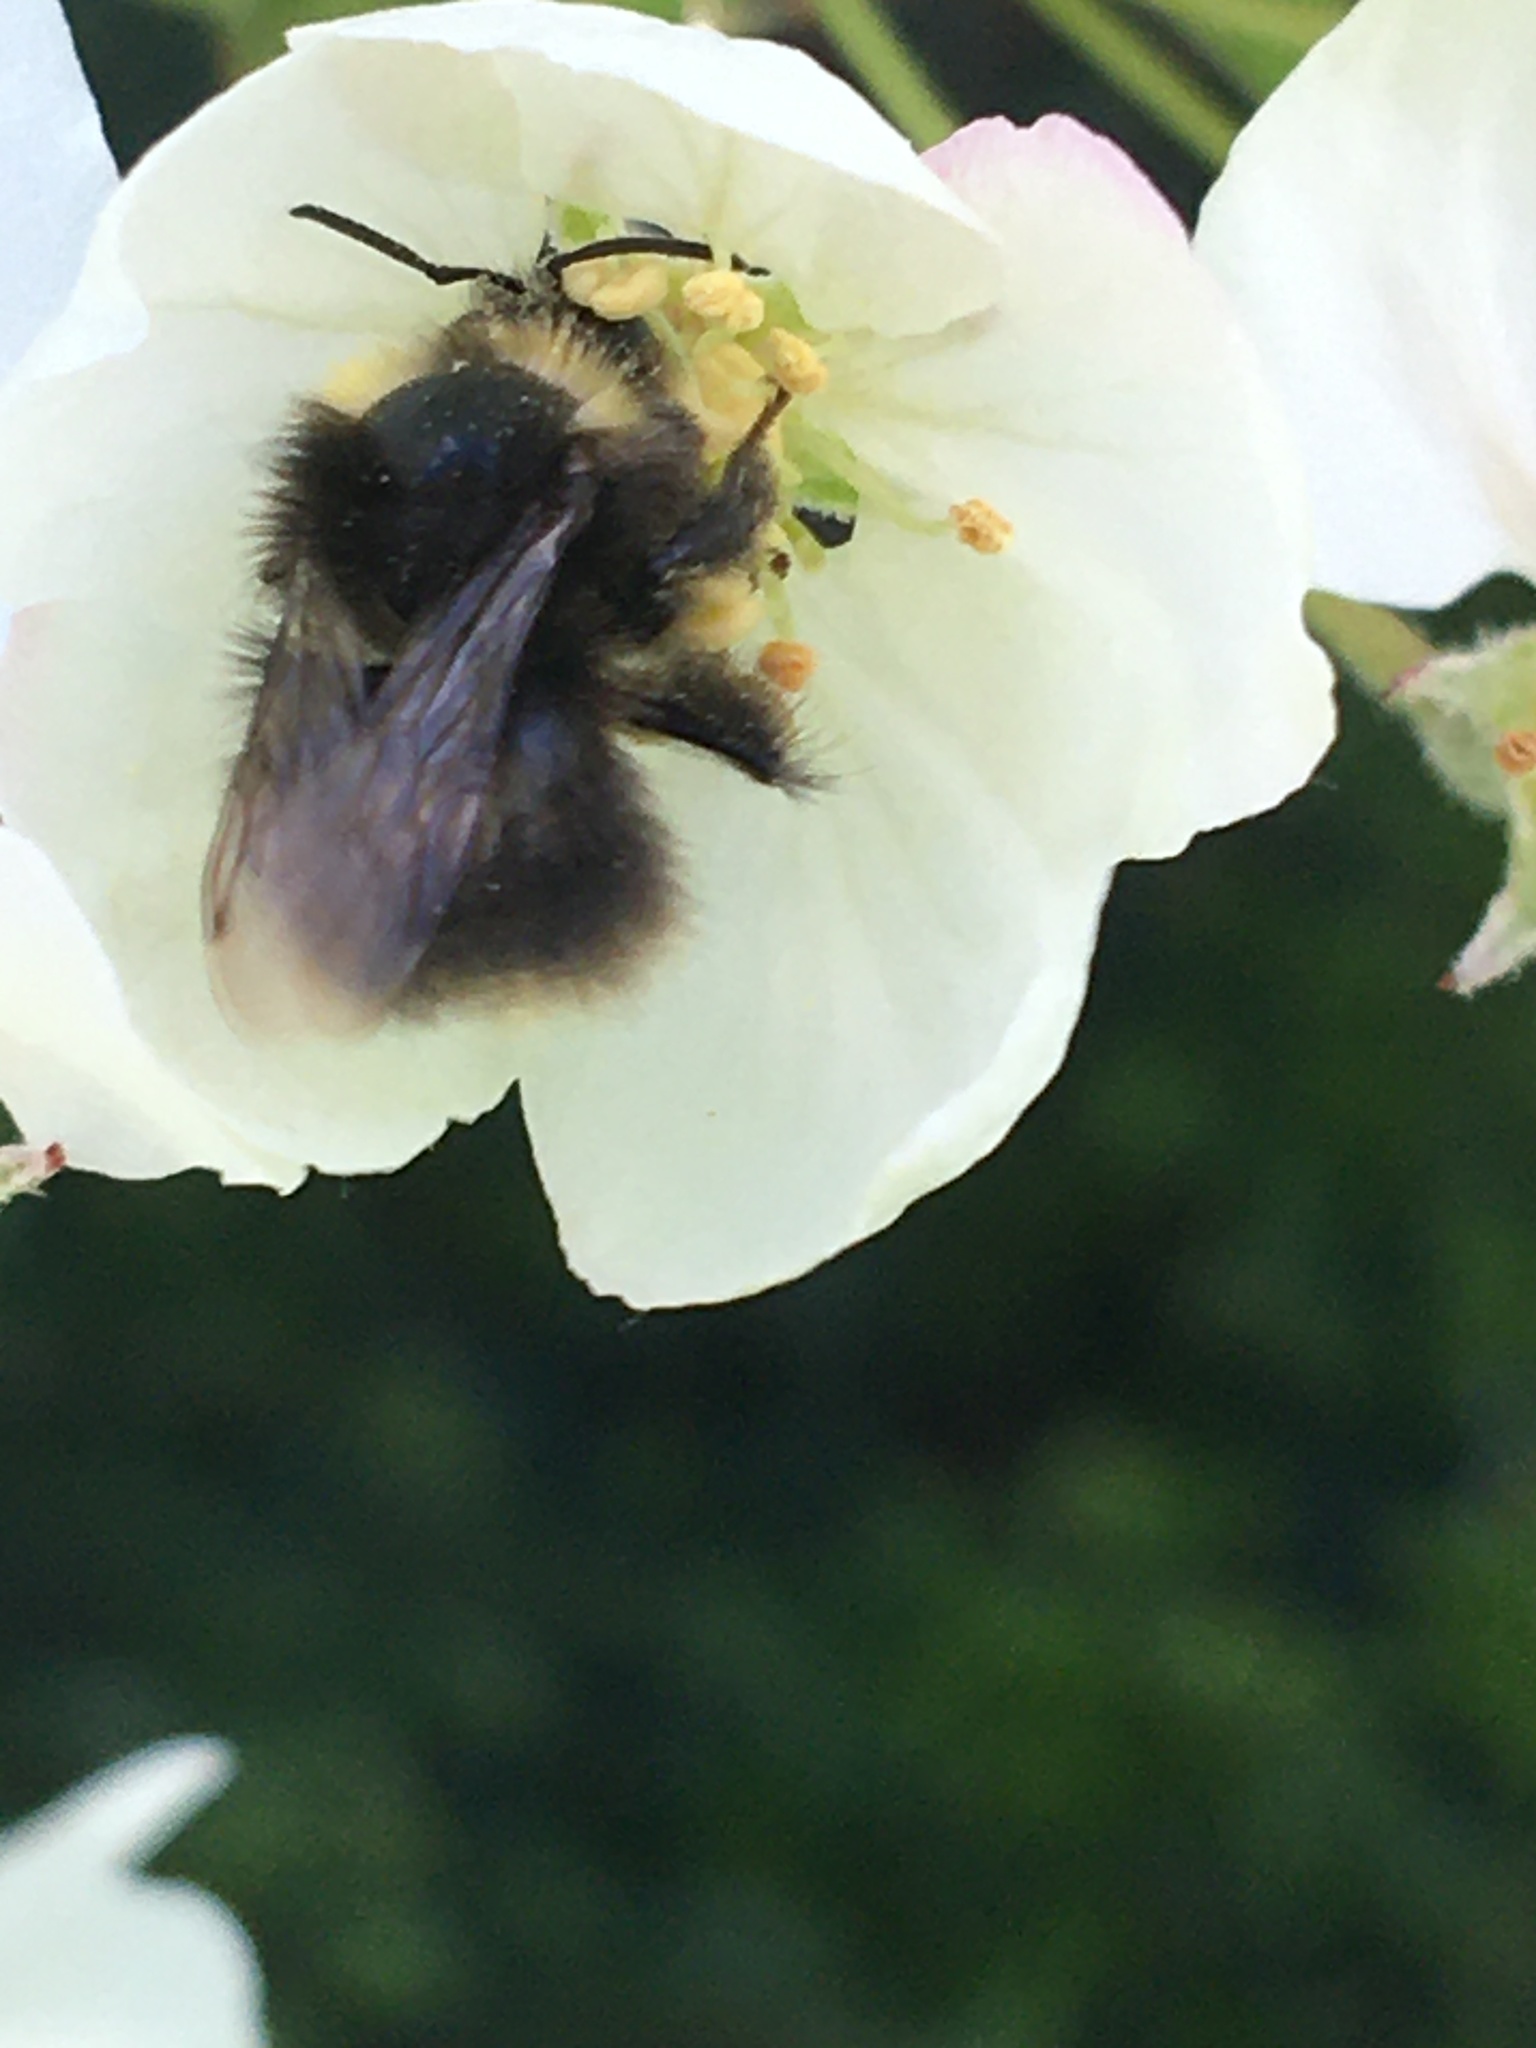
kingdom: Animalia
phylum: Arthropoda
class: Insecta
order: Hymenoptera
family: Apidae
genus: Bombus
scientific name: Bombus pratorum
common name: Early humble-bee
